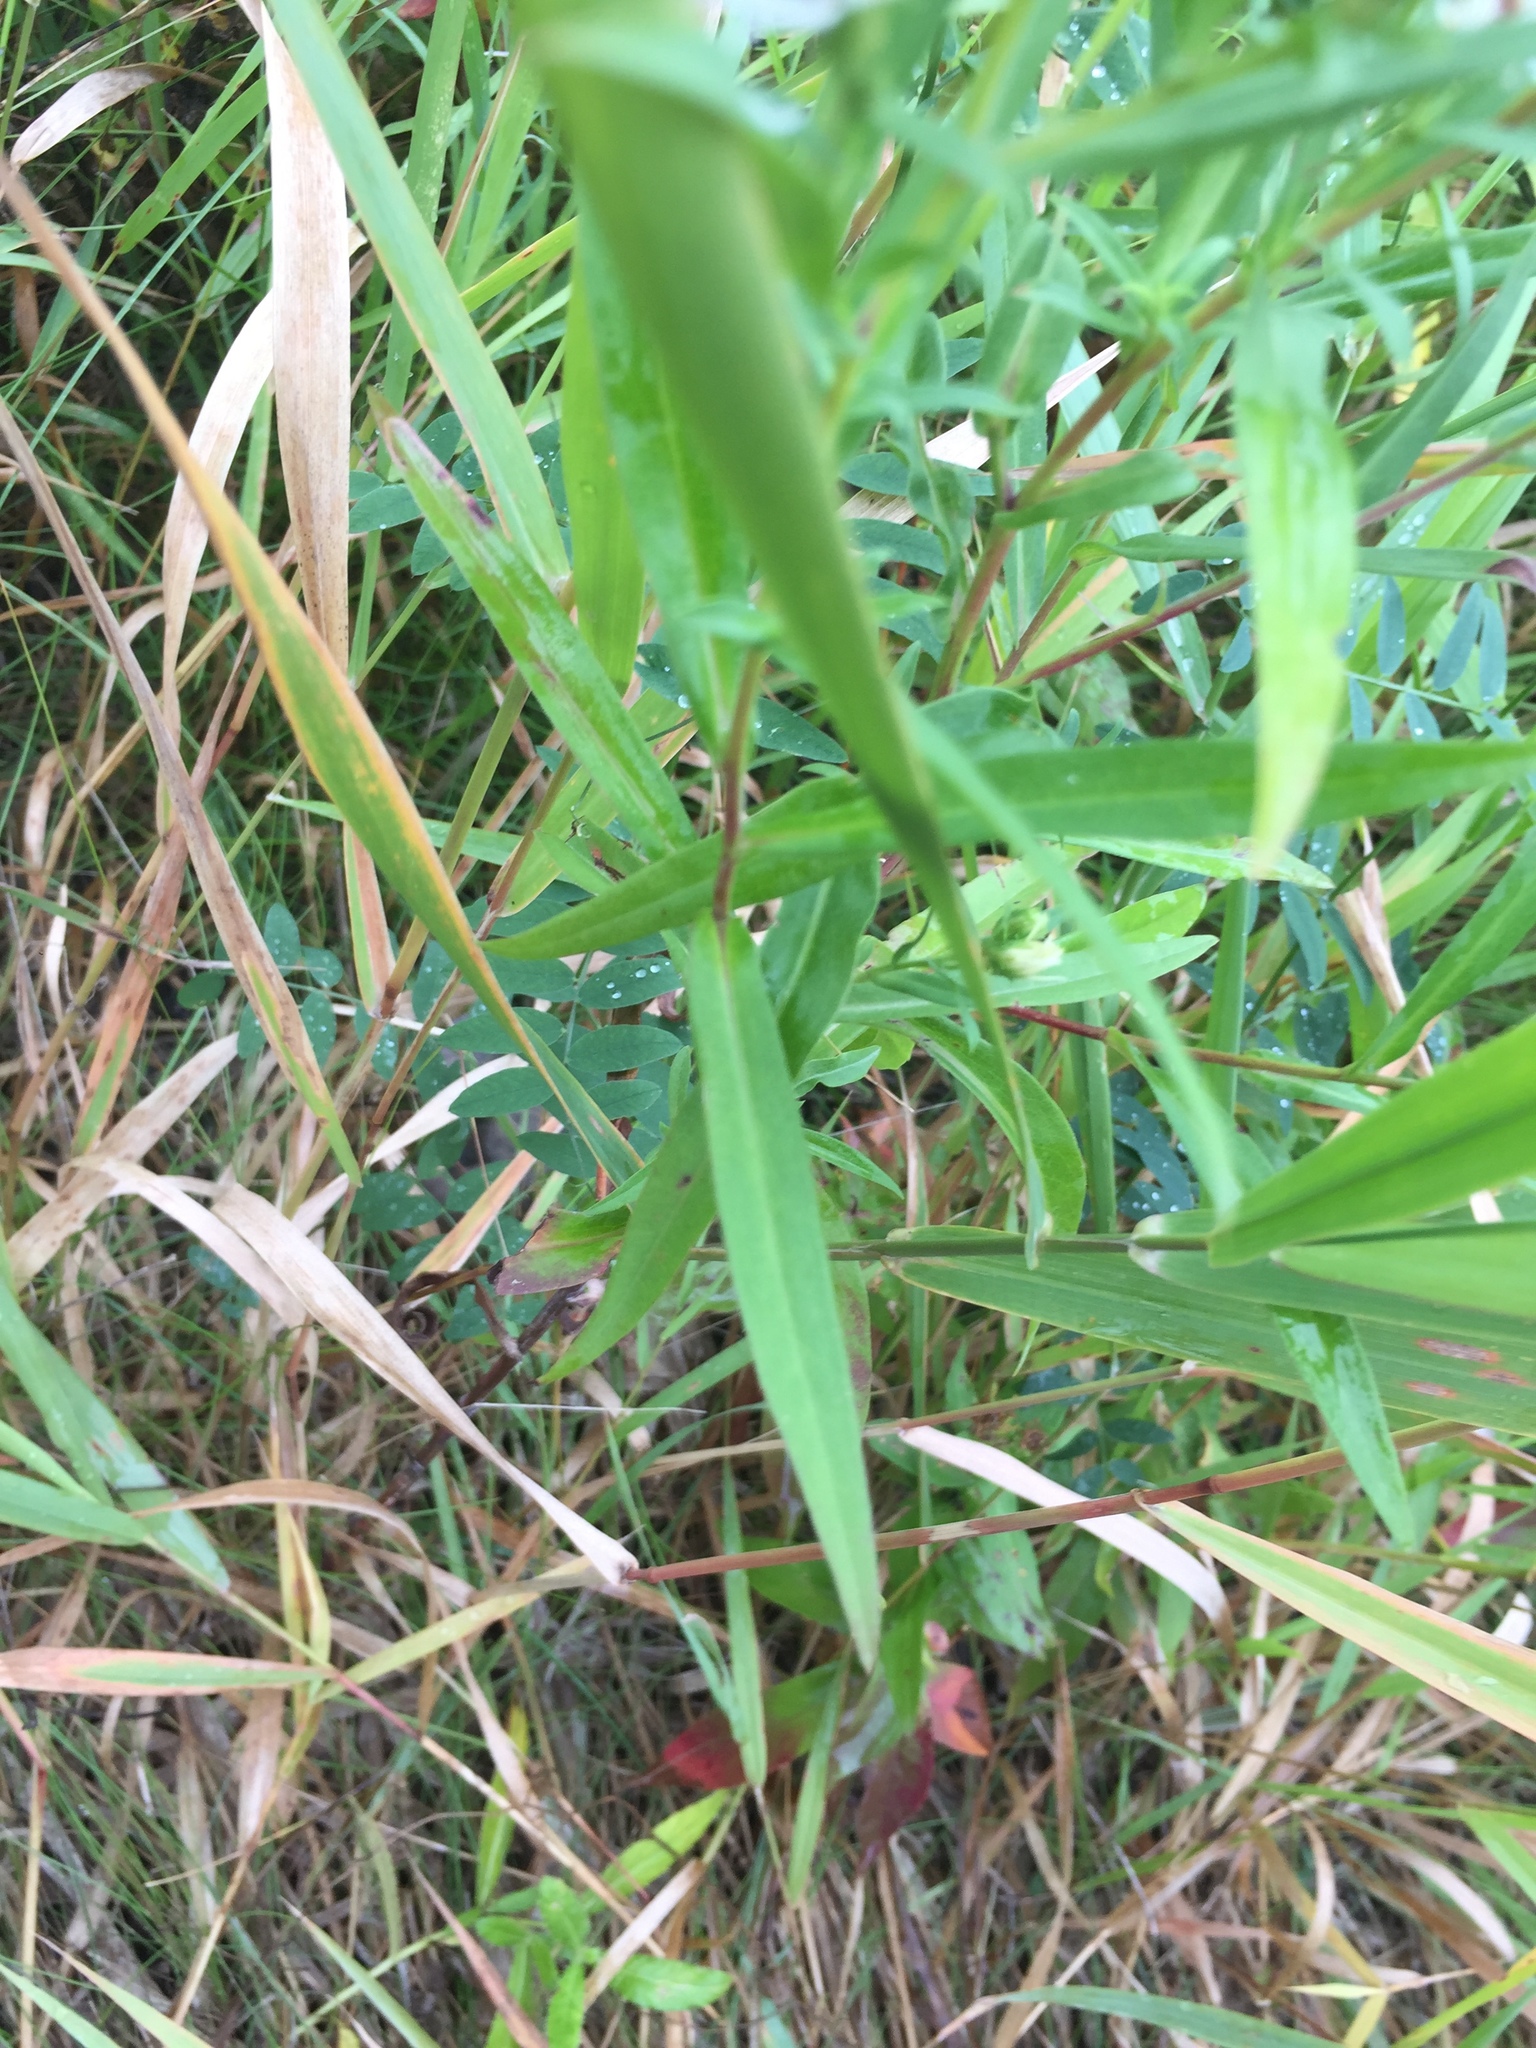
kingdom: Plantae
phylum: Tracheophyta
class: Magnoliopsida
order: Asterales
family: Asteraceae
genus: Symphyotrichum
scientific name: Symphyotrichum lanceolatum
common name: Panicled aster
